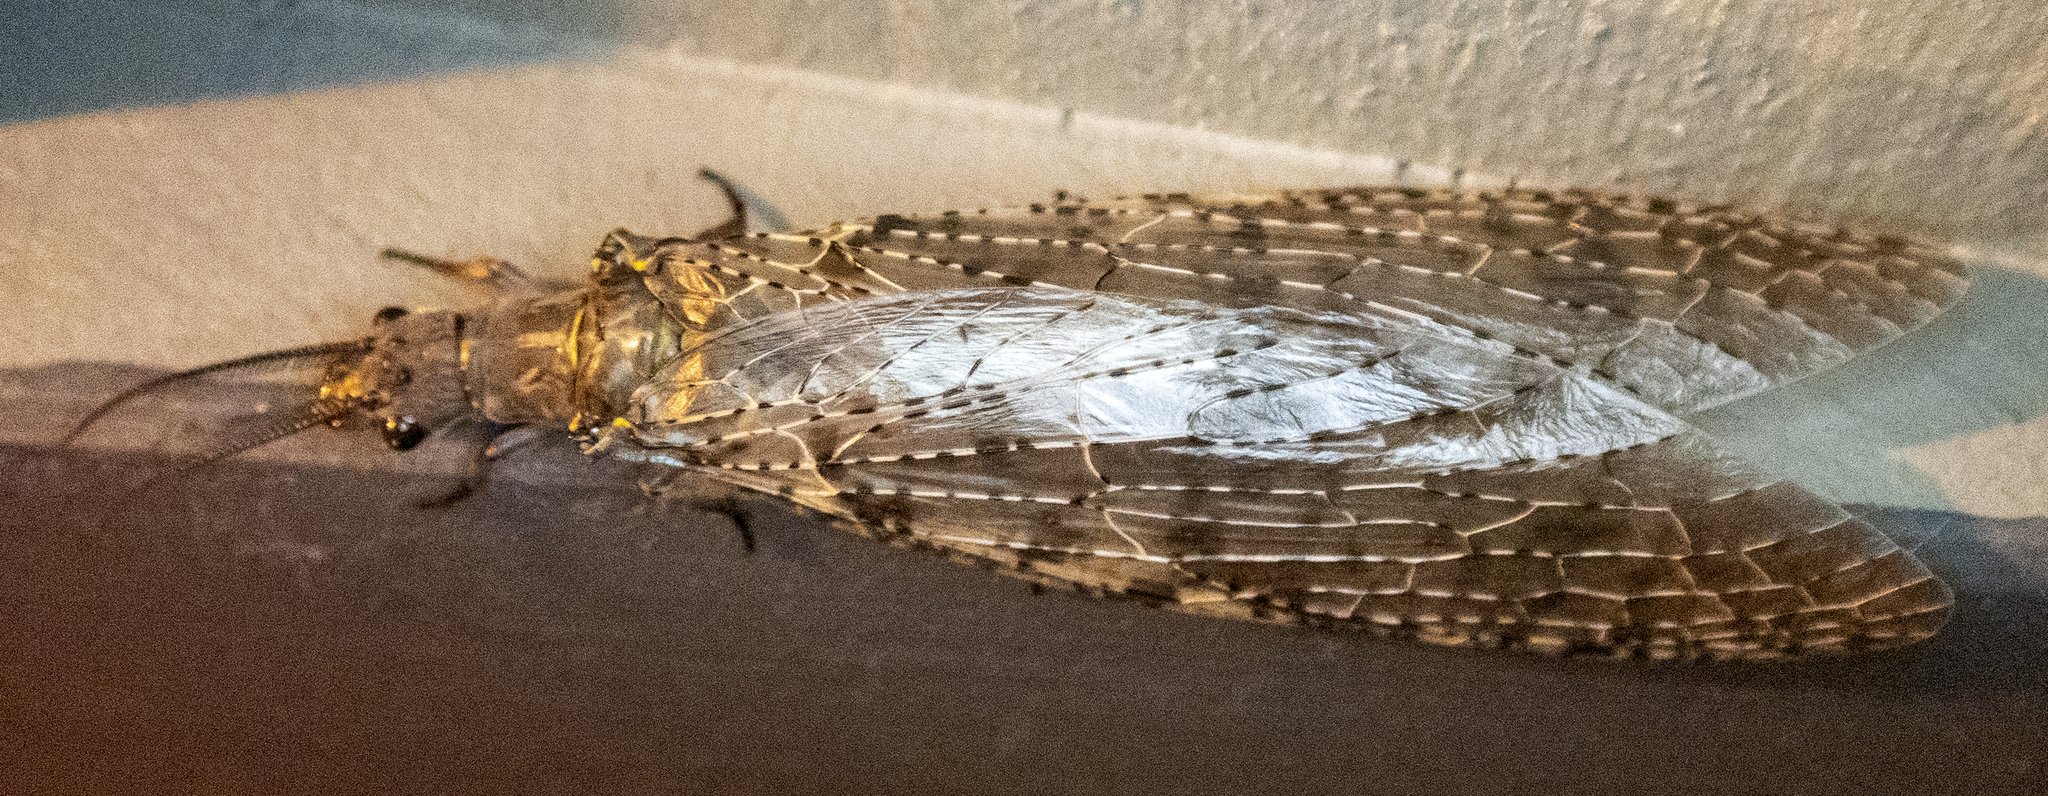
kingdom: Animalia
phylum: Arthropoda
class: Insecta
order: Megaloptera
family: Corydalidae
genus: Chauliodes
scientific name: Chauliodes pectinicornis
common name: Summer fishfly
